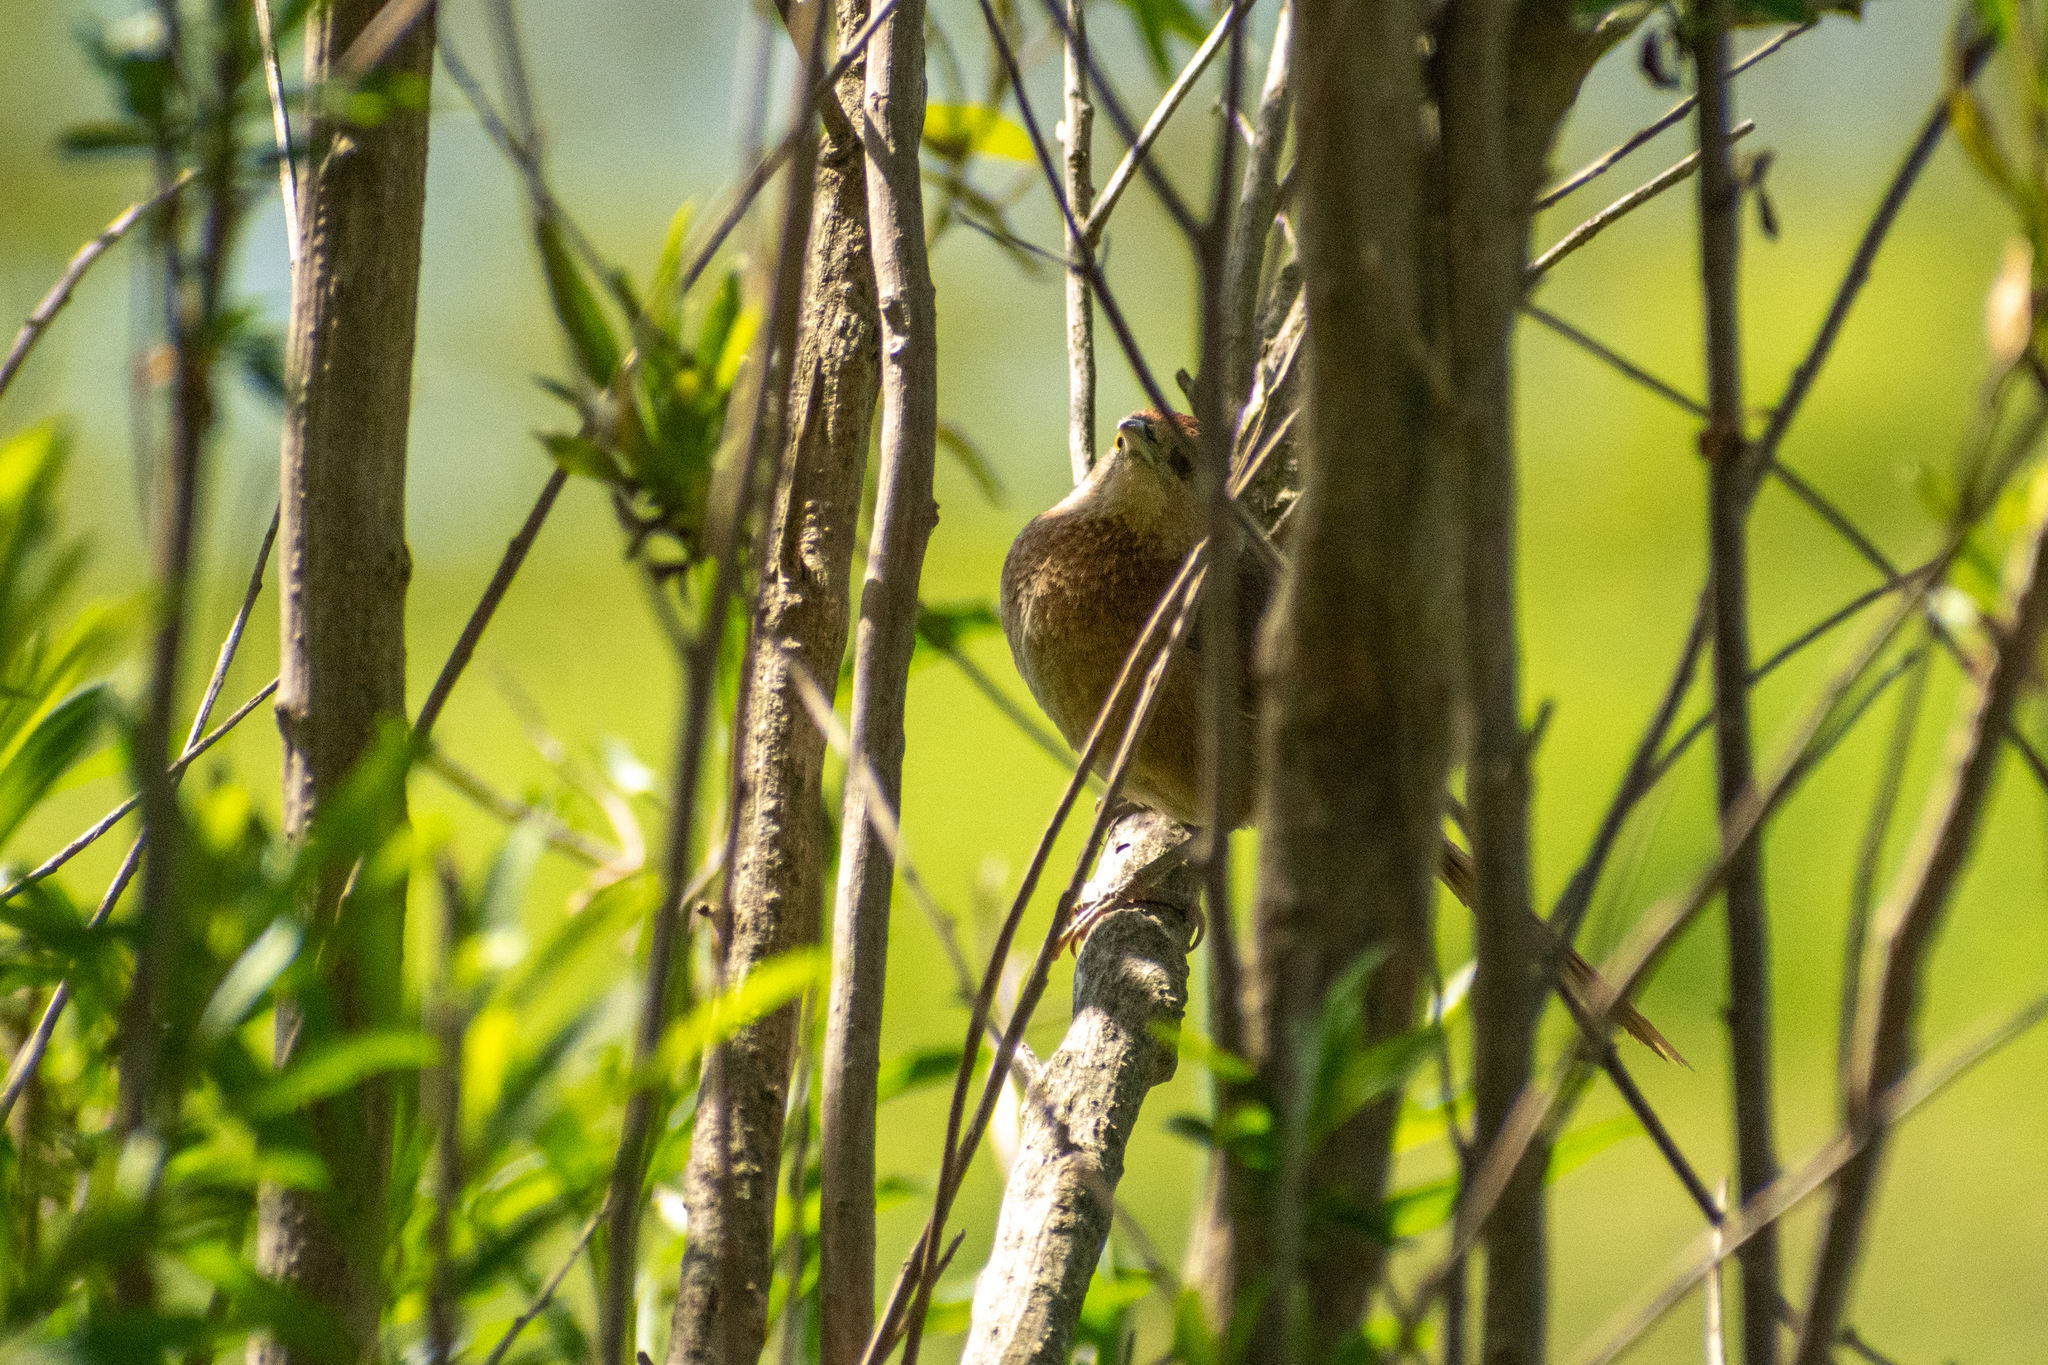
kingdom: Animalia
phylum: Chordata
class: Aves
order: Passeriformes
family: Furnariidae
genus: Phacellodomus
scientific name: Phacellodomus striaticollis
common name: Freckle-breasted thornbird
